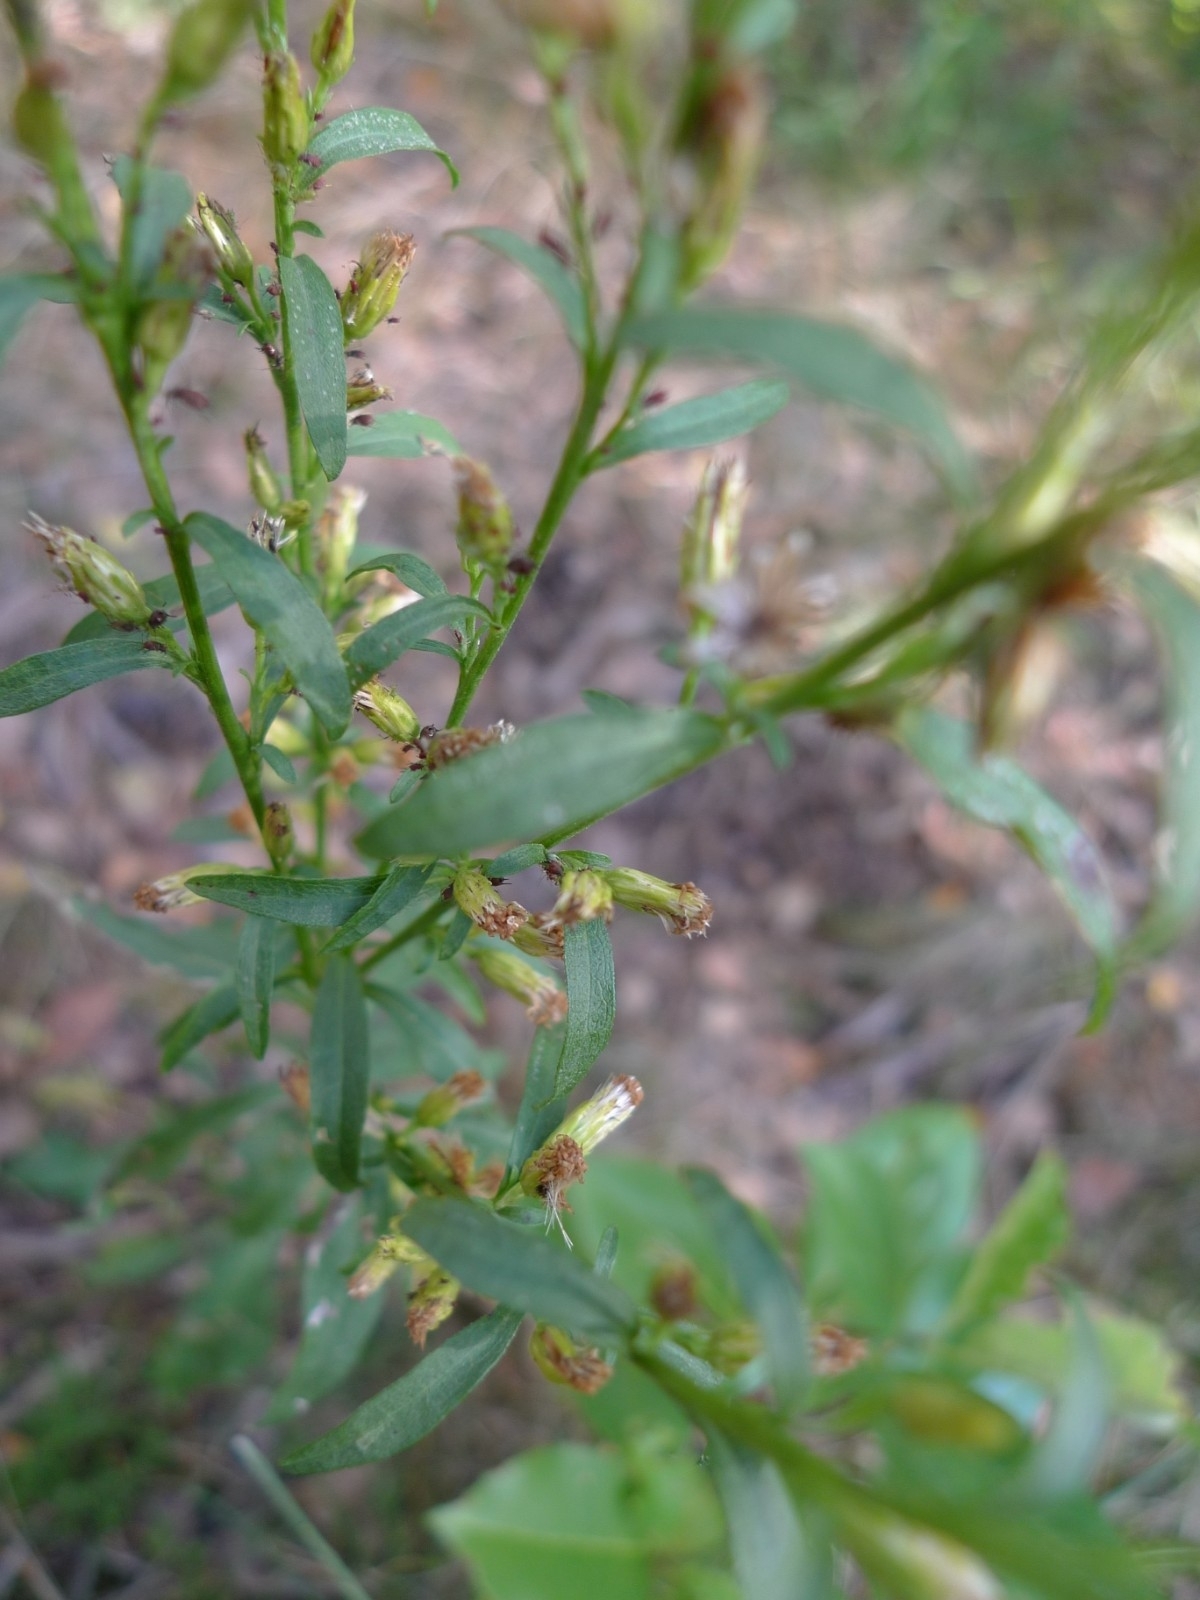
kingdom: Plantae
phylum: Tracheophyta
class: Magnoliopsida
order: Asterales
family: Asteraceae
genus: Solidago
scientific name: Solidago virgaurea
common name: Goldenrod
